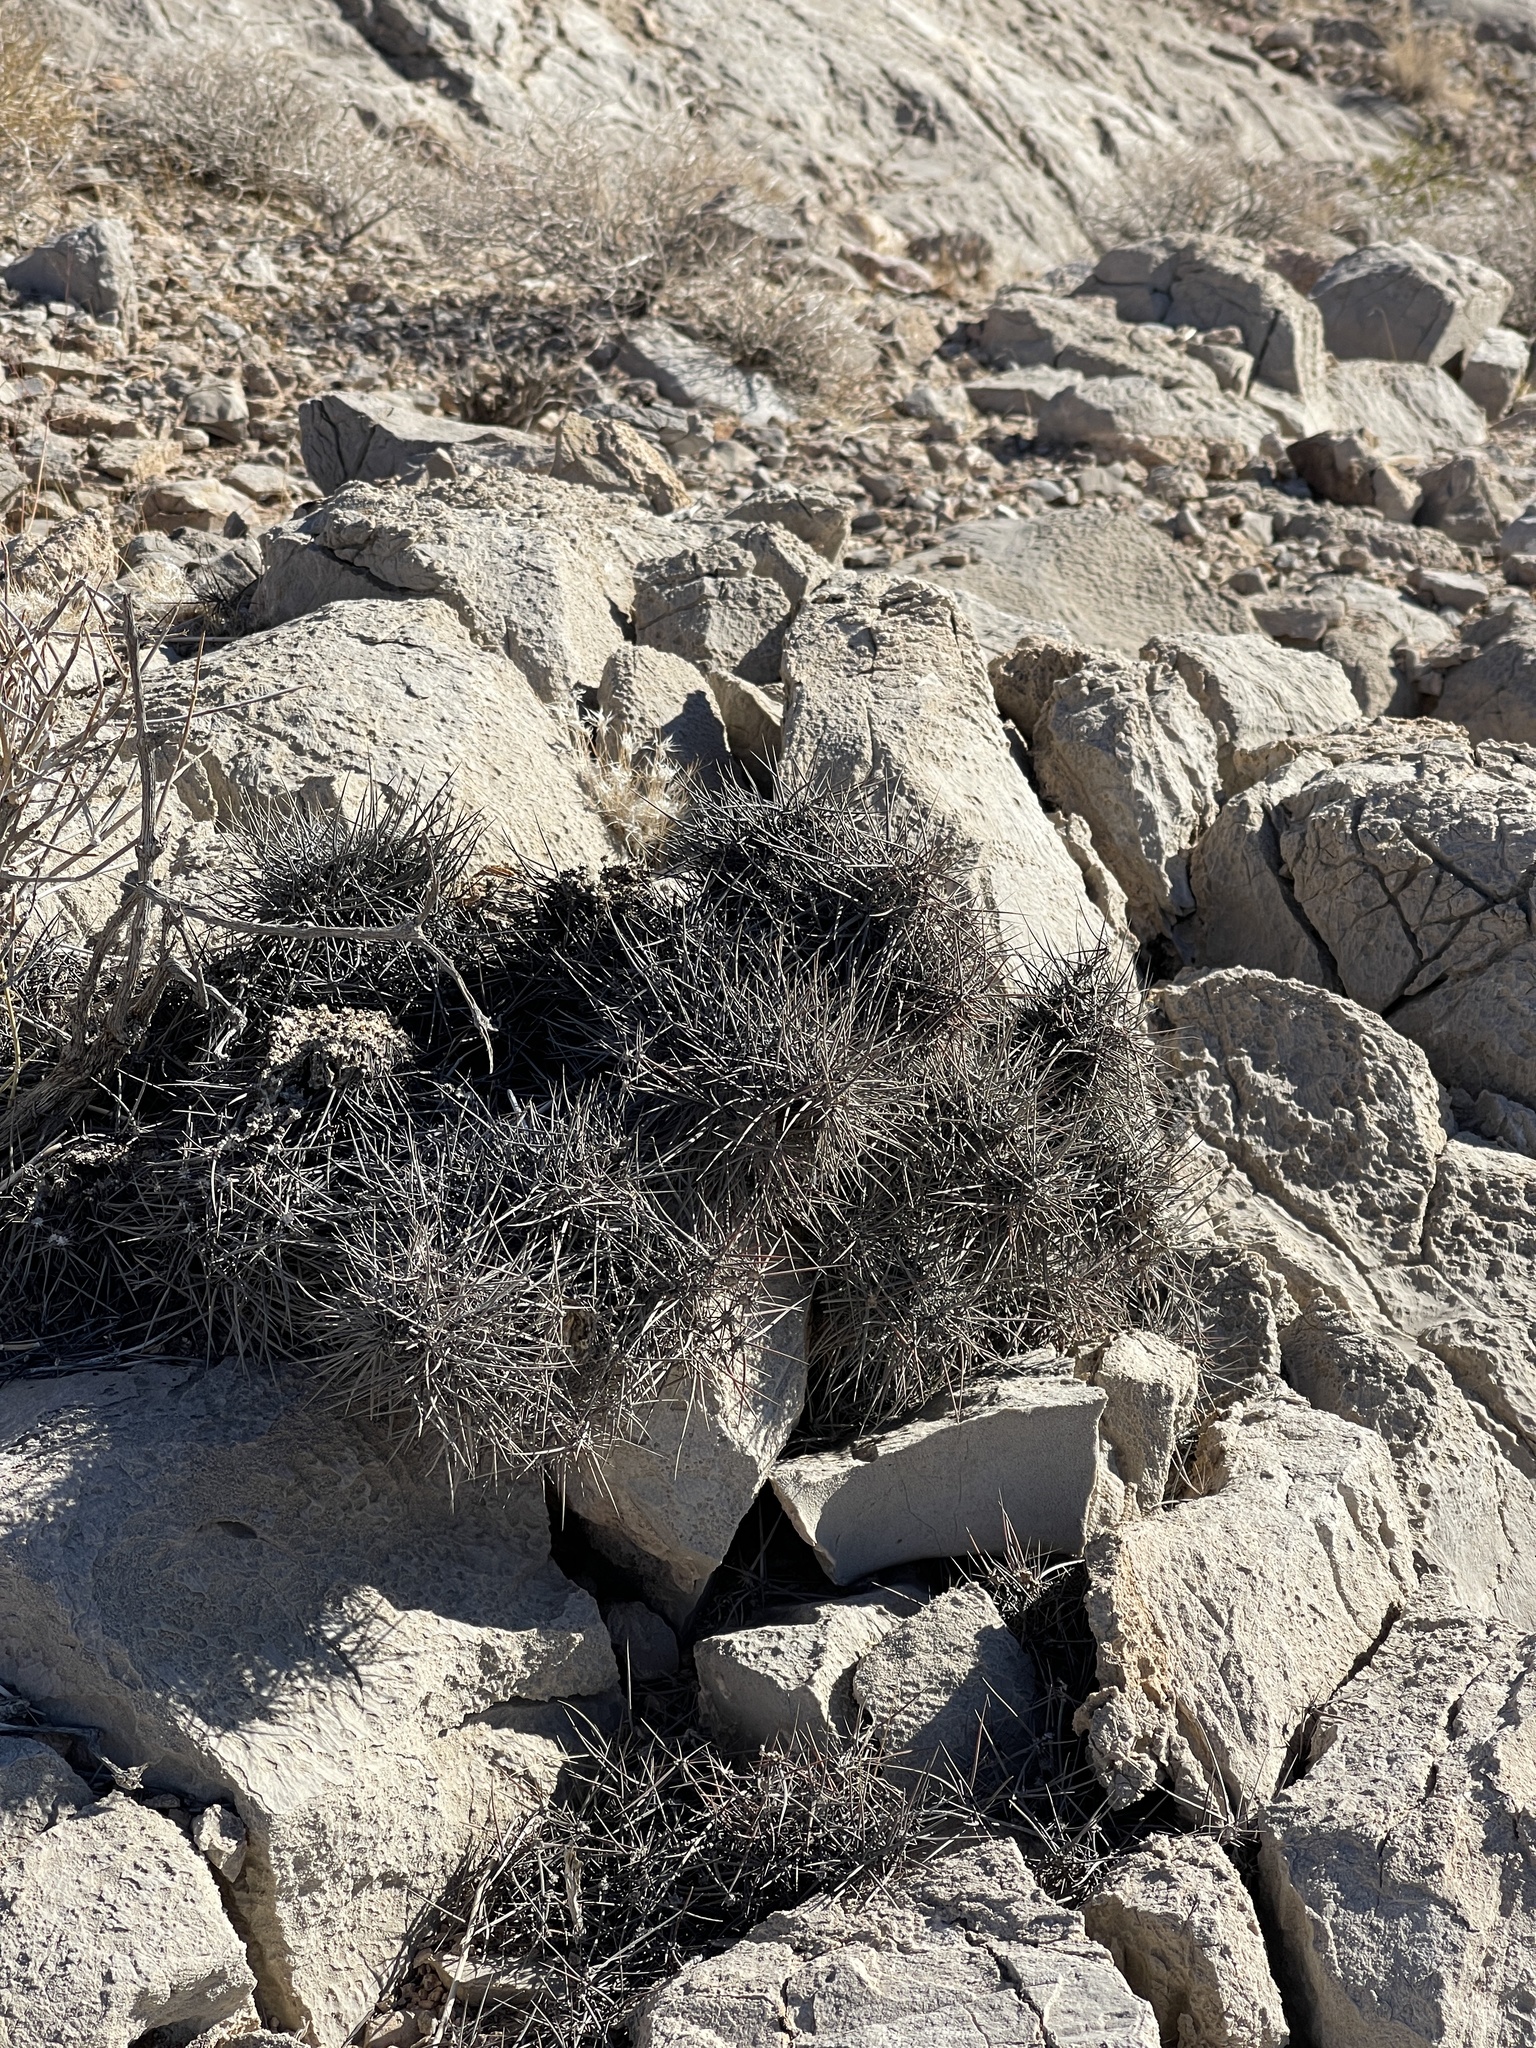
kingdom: Plantae
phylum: Tracheophyta
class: Magnoliopsida
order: Caryophyllales
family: Cactaceae
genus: Echinocereus
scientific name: Echinocereus engelmannii
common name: Engelmann's hedgehog cactus
